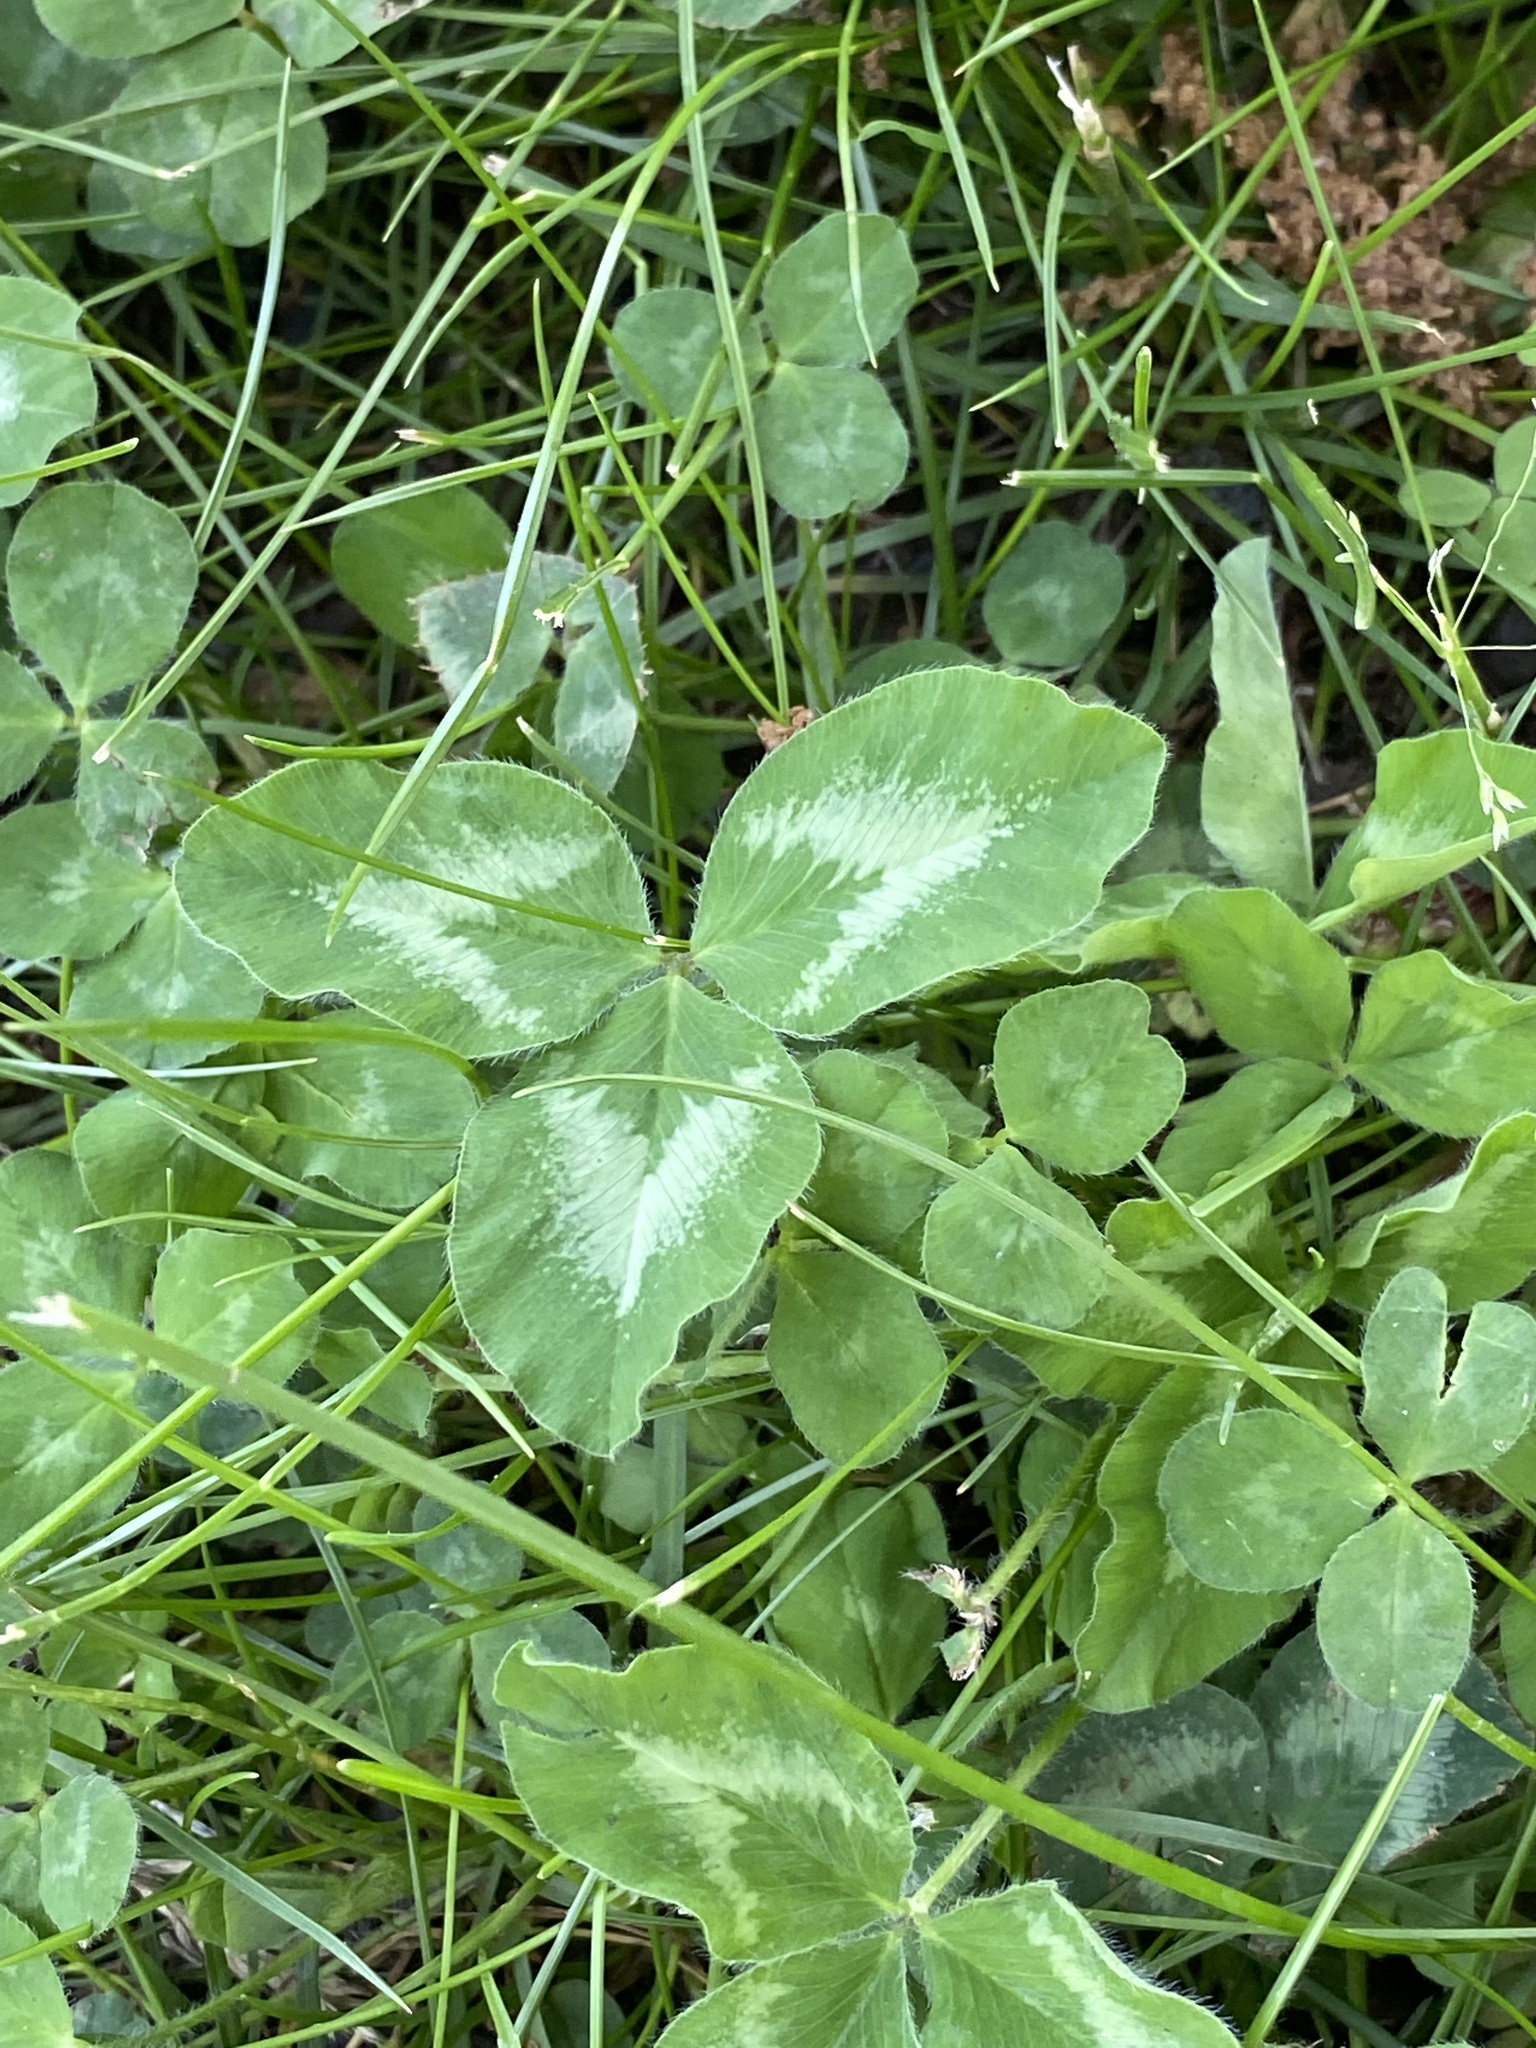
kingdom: Plantae
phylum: Tracheophyta
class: Magnoliopsida
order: Fabales
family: Fabaceae
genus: Trifolium
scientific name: Trifolium pratense
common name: Red clover
